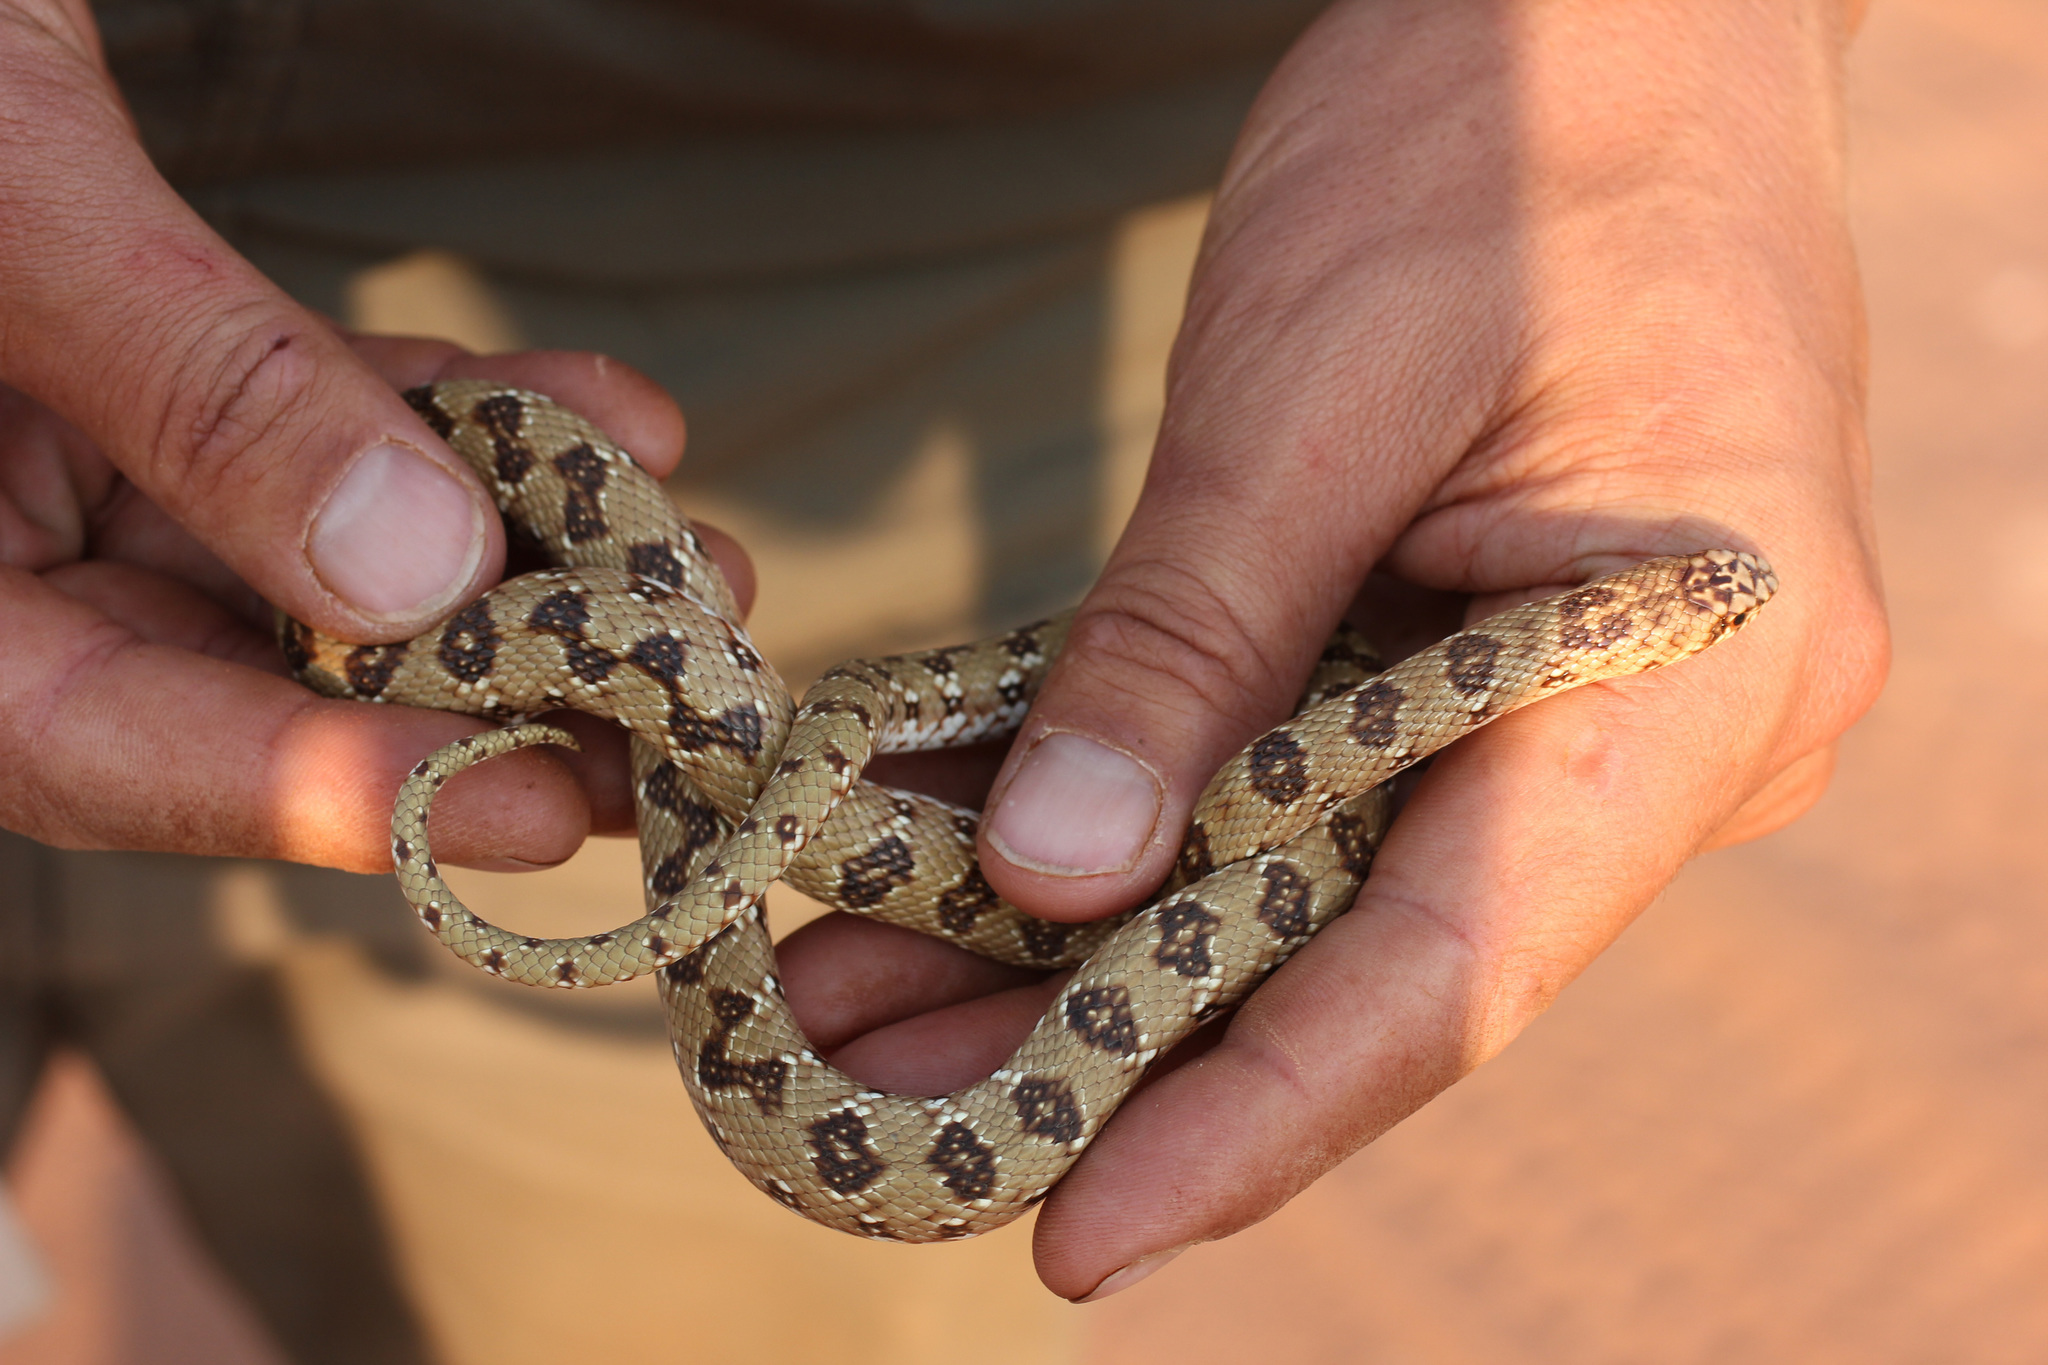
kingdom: Animalia
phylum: Chordata
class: Squamata
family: Pseudaspididae
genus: Pseudaspis
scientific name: Pseudaspis cana
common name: Mole snake
